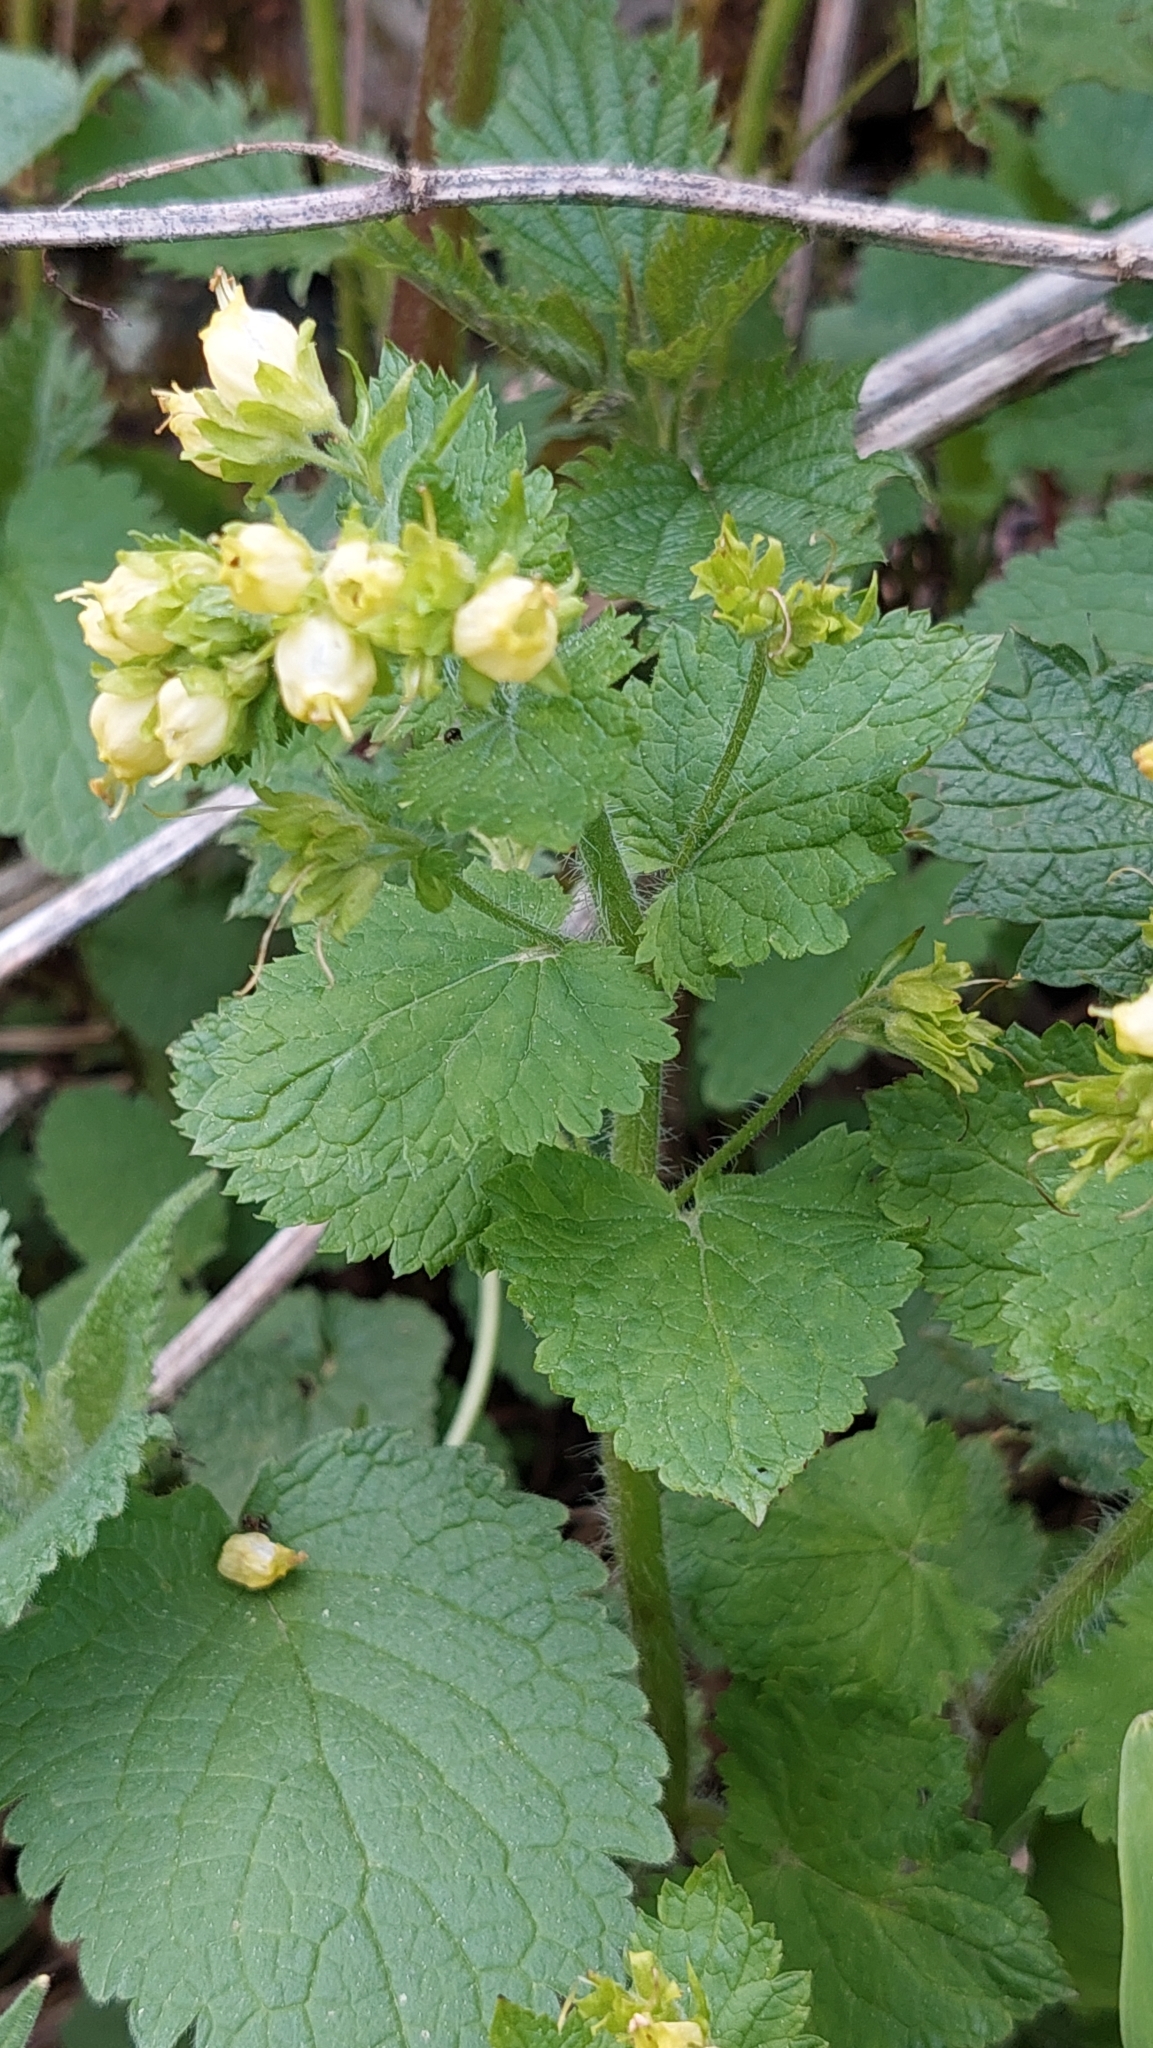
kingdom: Plantae
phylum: Tracheophyta
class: Magnoliopsida
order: Lamiales
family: Scrophulariaceae
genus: Scrophularia
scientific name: Scrophularia chrysantha
